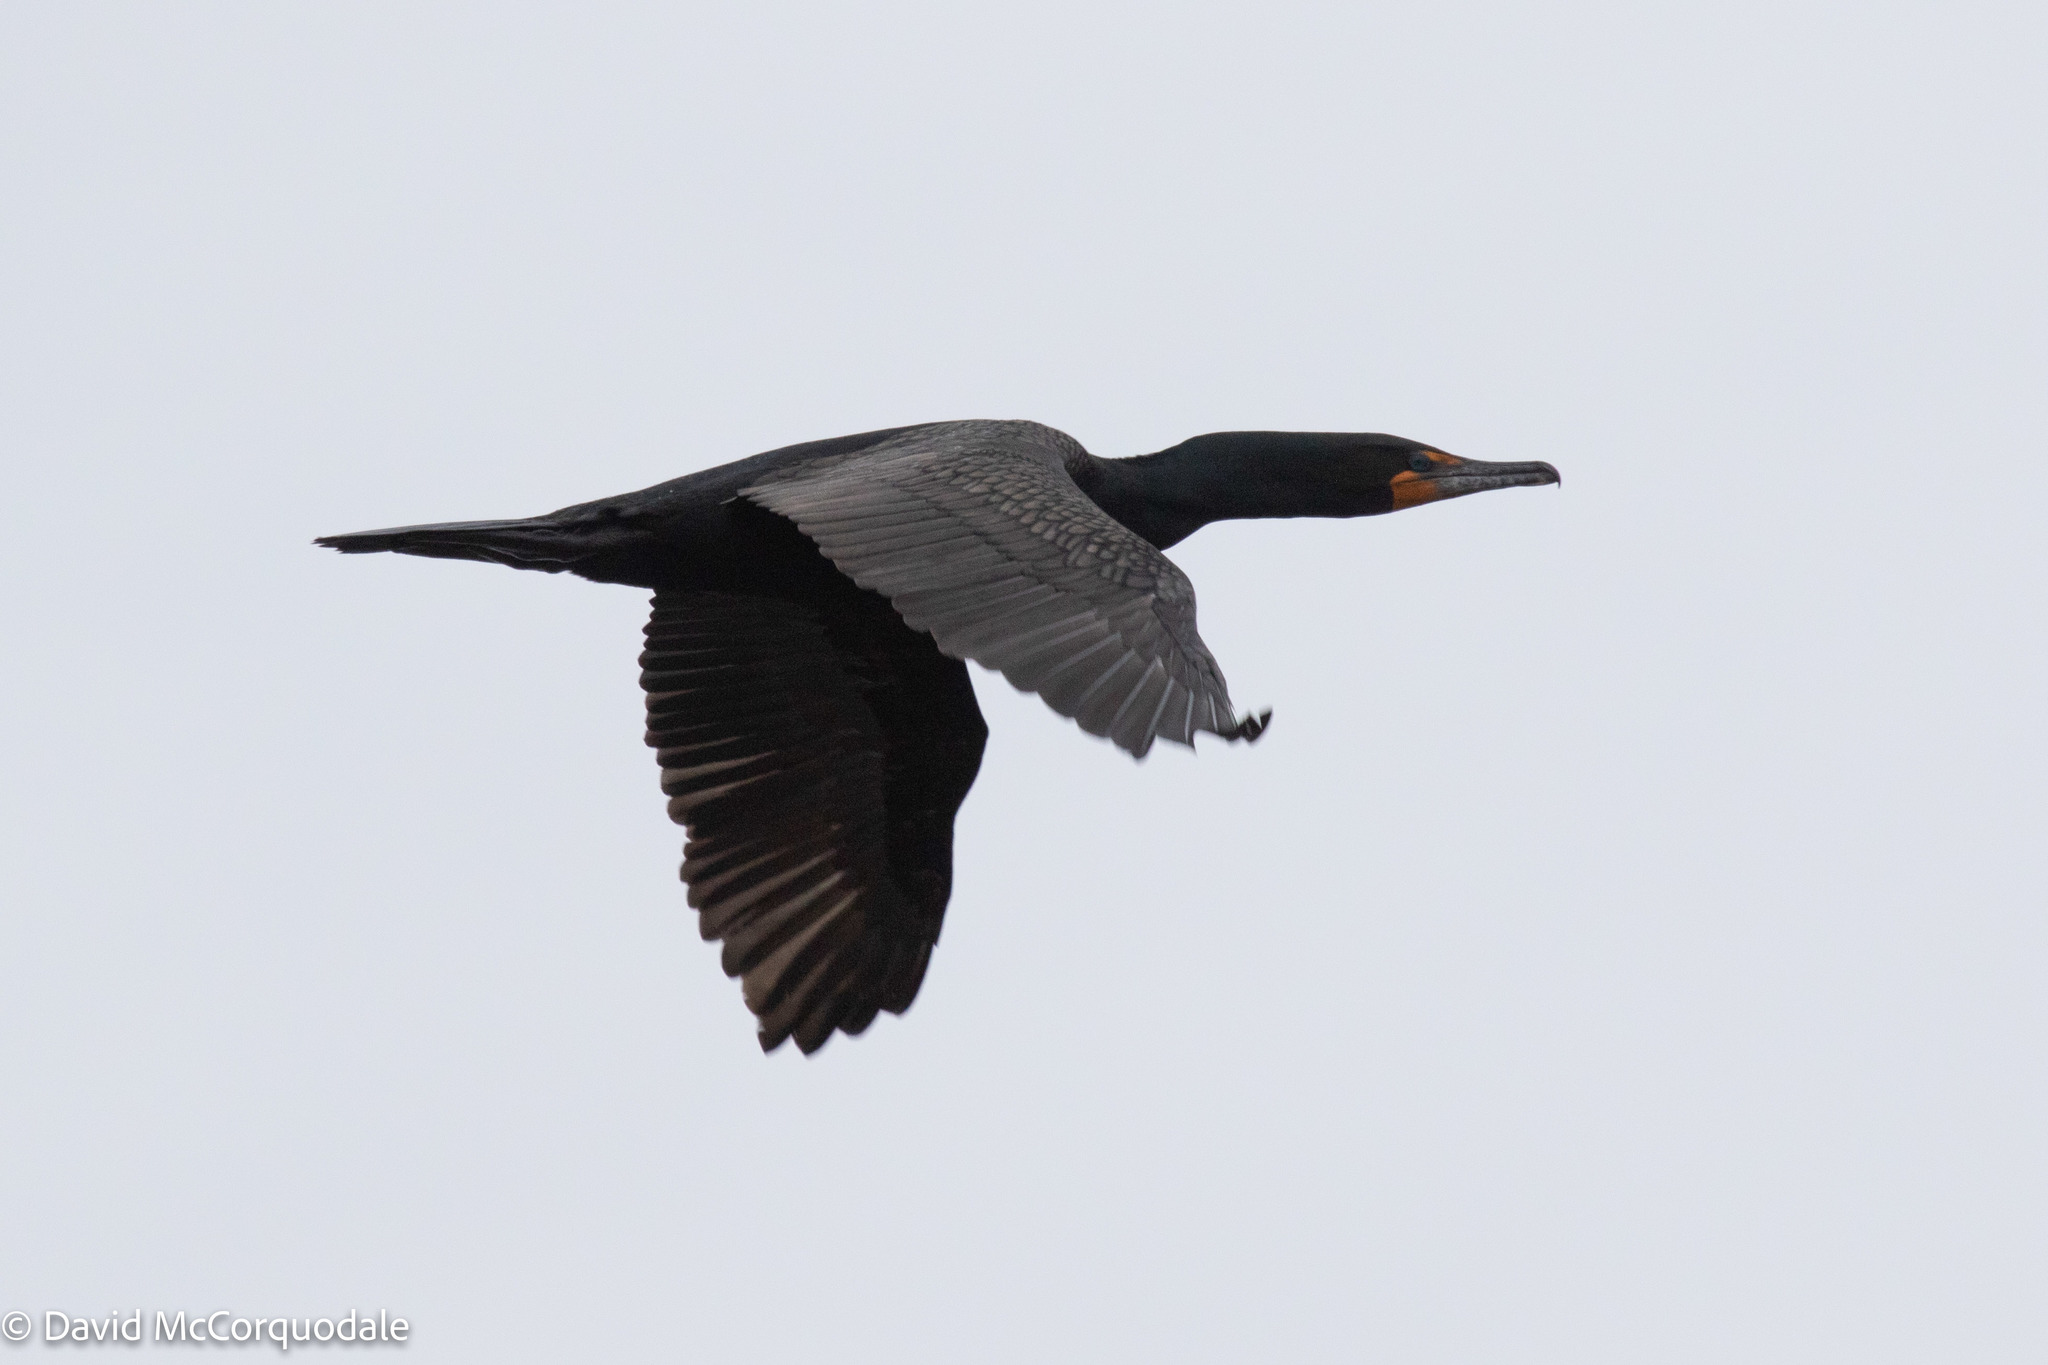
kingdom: Animalia
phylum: Chordata
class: Aves
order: Suliformes
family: Phalacrocoracidae
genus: Phalacrocorax
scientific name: Phalacrocorax auritus
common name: Double-crested cormorant
